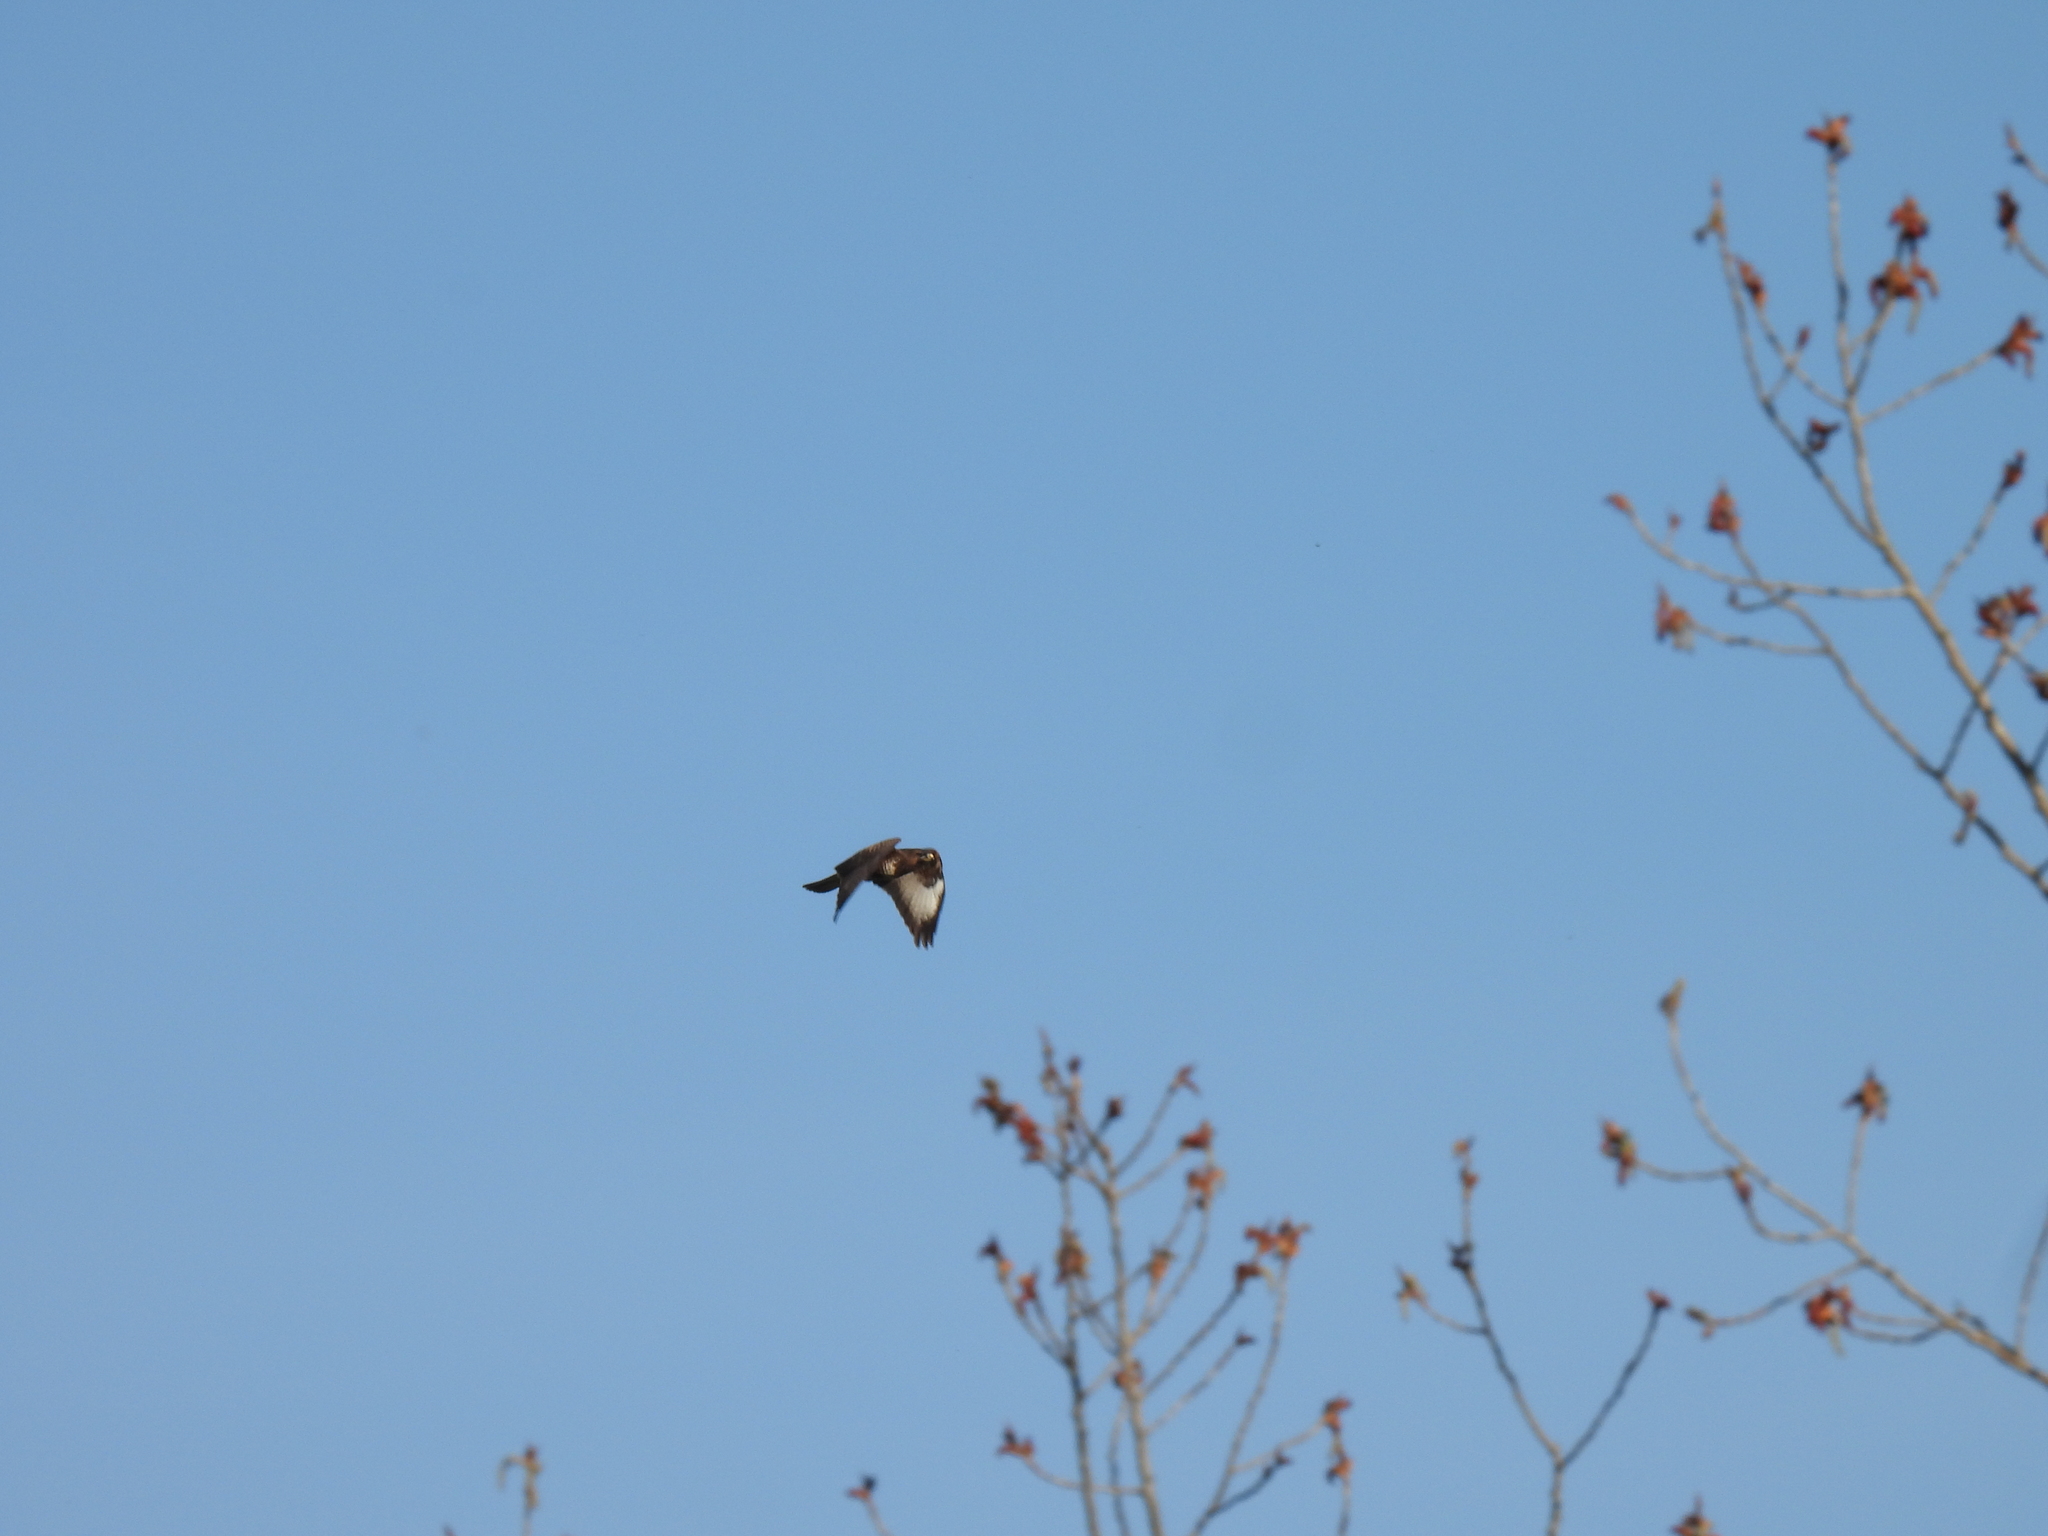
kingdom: Animalia
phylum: Chordata
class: Aves
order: Accipitriformes
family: Accipitridae
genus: Buteo
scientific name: Buteo buteo
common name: Common buzzard
